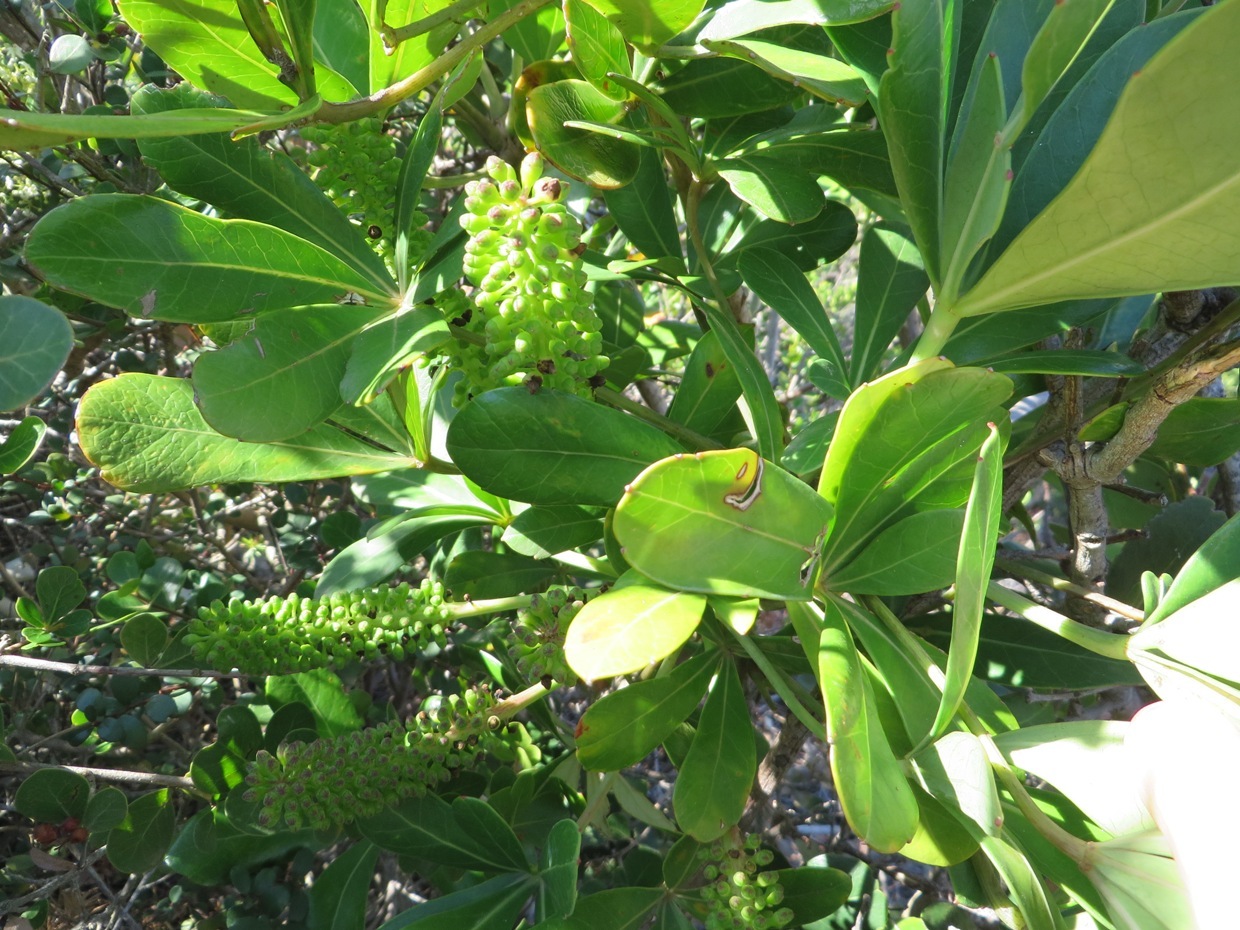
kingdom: Plantae
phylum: Tracheophyta
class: Magnoliopsida
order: Apiales
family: Araliaceae
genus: Cussonia
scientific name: Cussonia thyrsiflora
